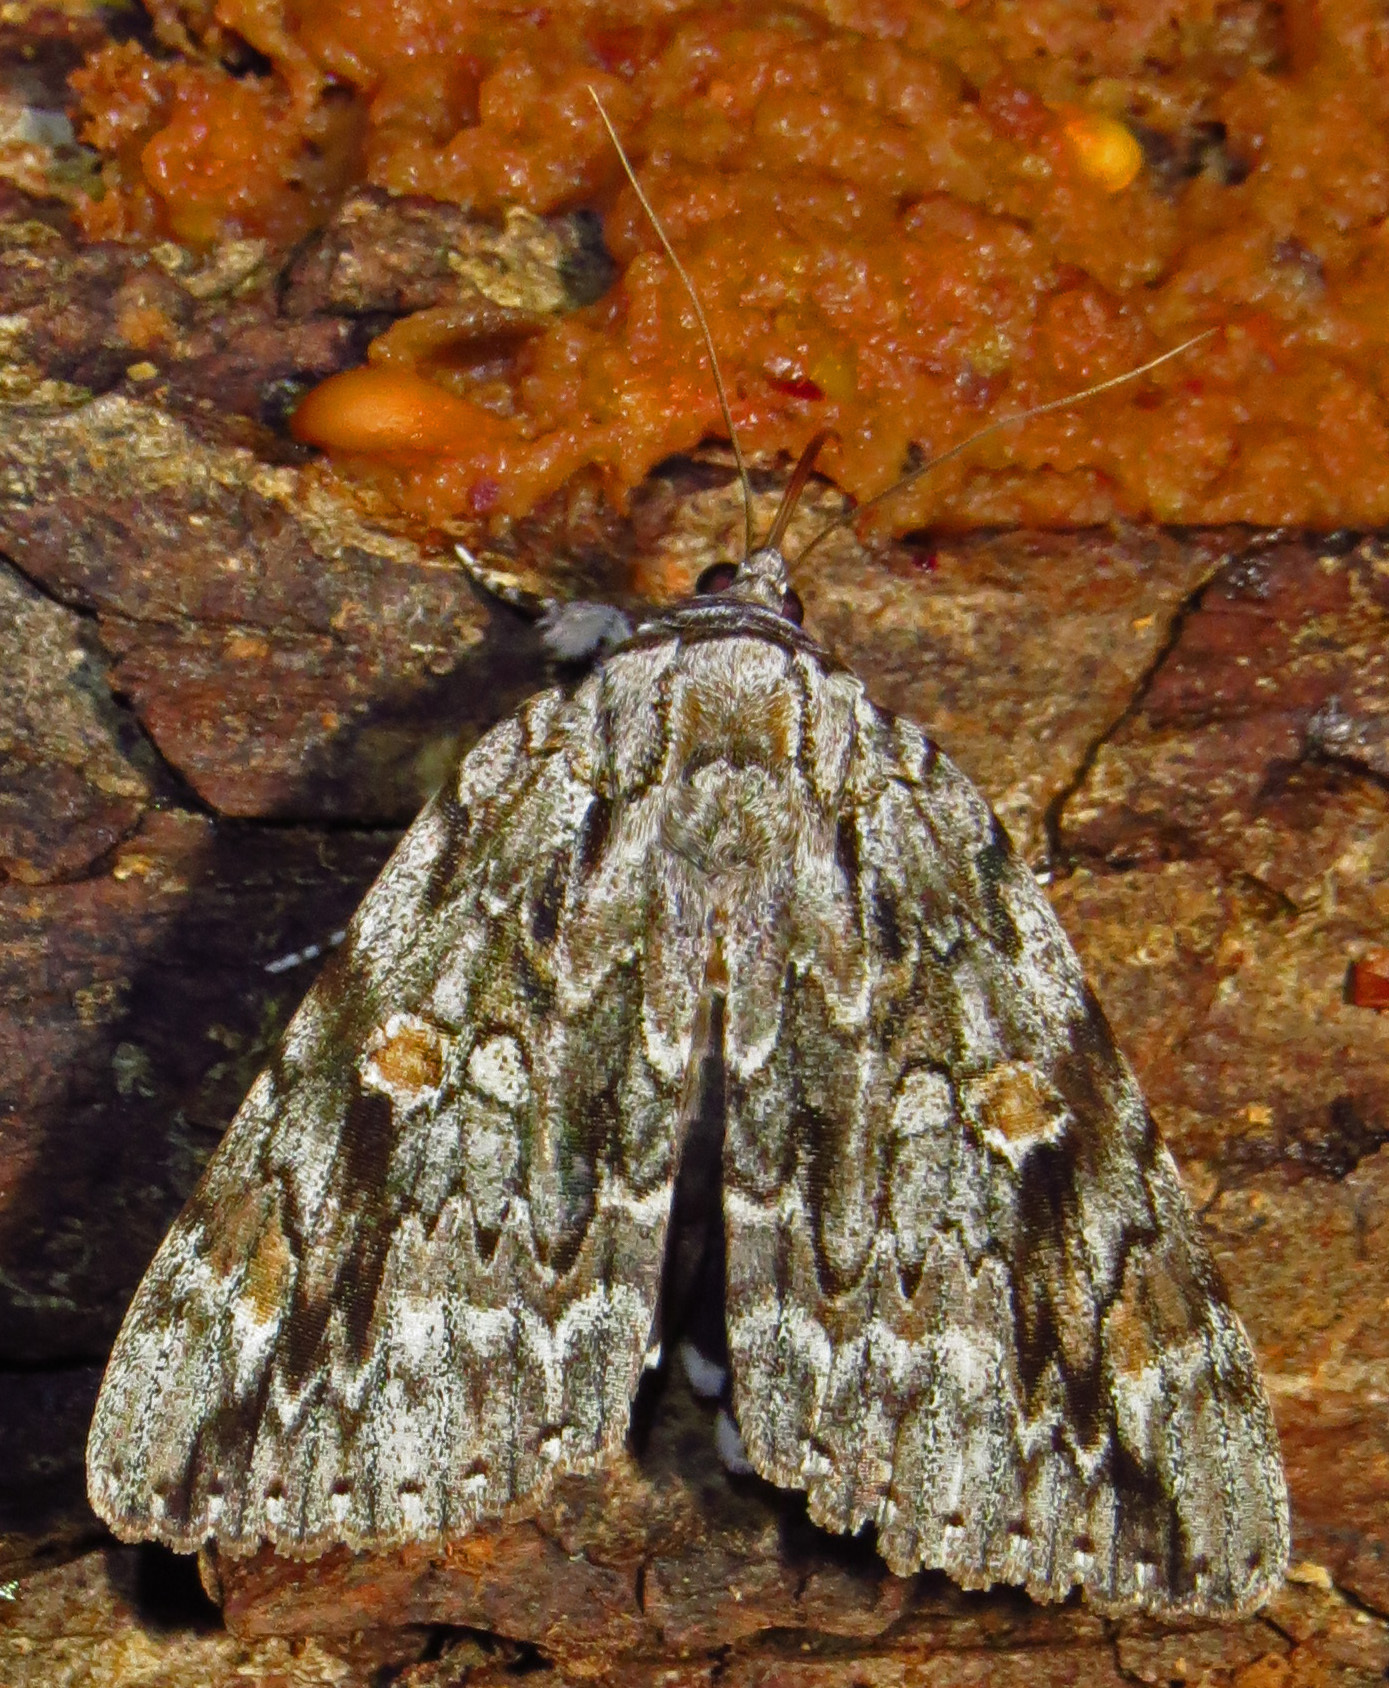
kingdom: Animalia
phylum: Arthropoda
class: Insecta
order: Lepidoptera
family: Erebidae
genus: Catocala
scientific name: Catocala maestosa
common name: Sad underwing
